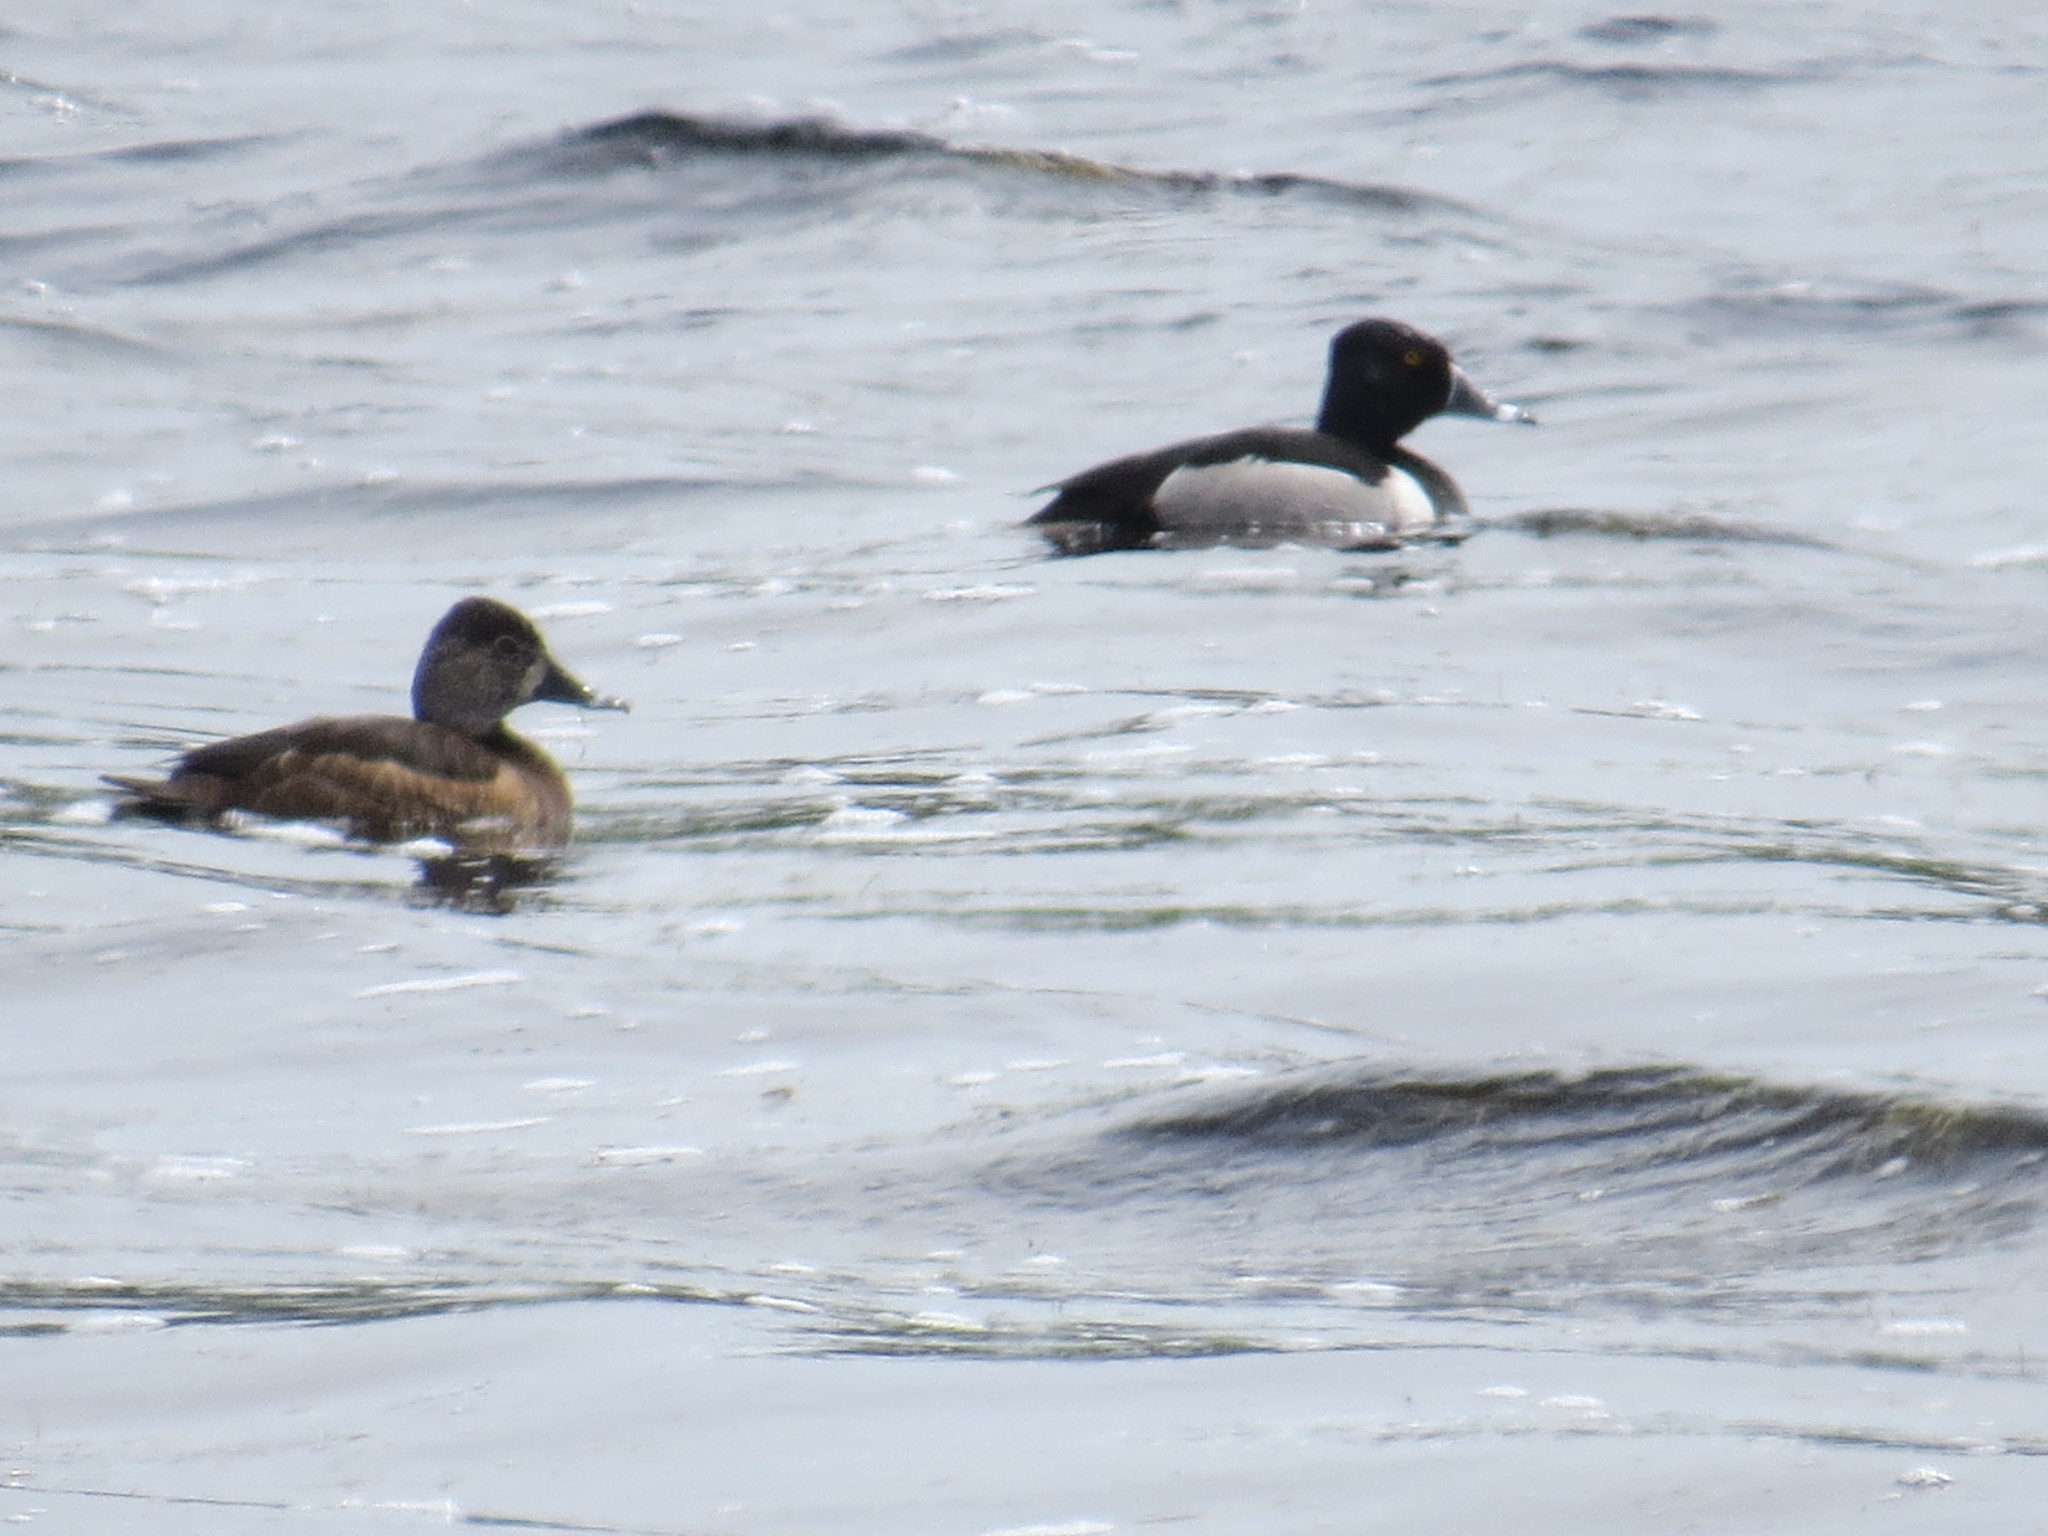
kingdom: Animalia
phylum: Chordata
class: Aves
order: Anseriformes
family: Anatidae
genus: Aythya
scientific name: Aythya collaris
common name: Ring-necked duck
